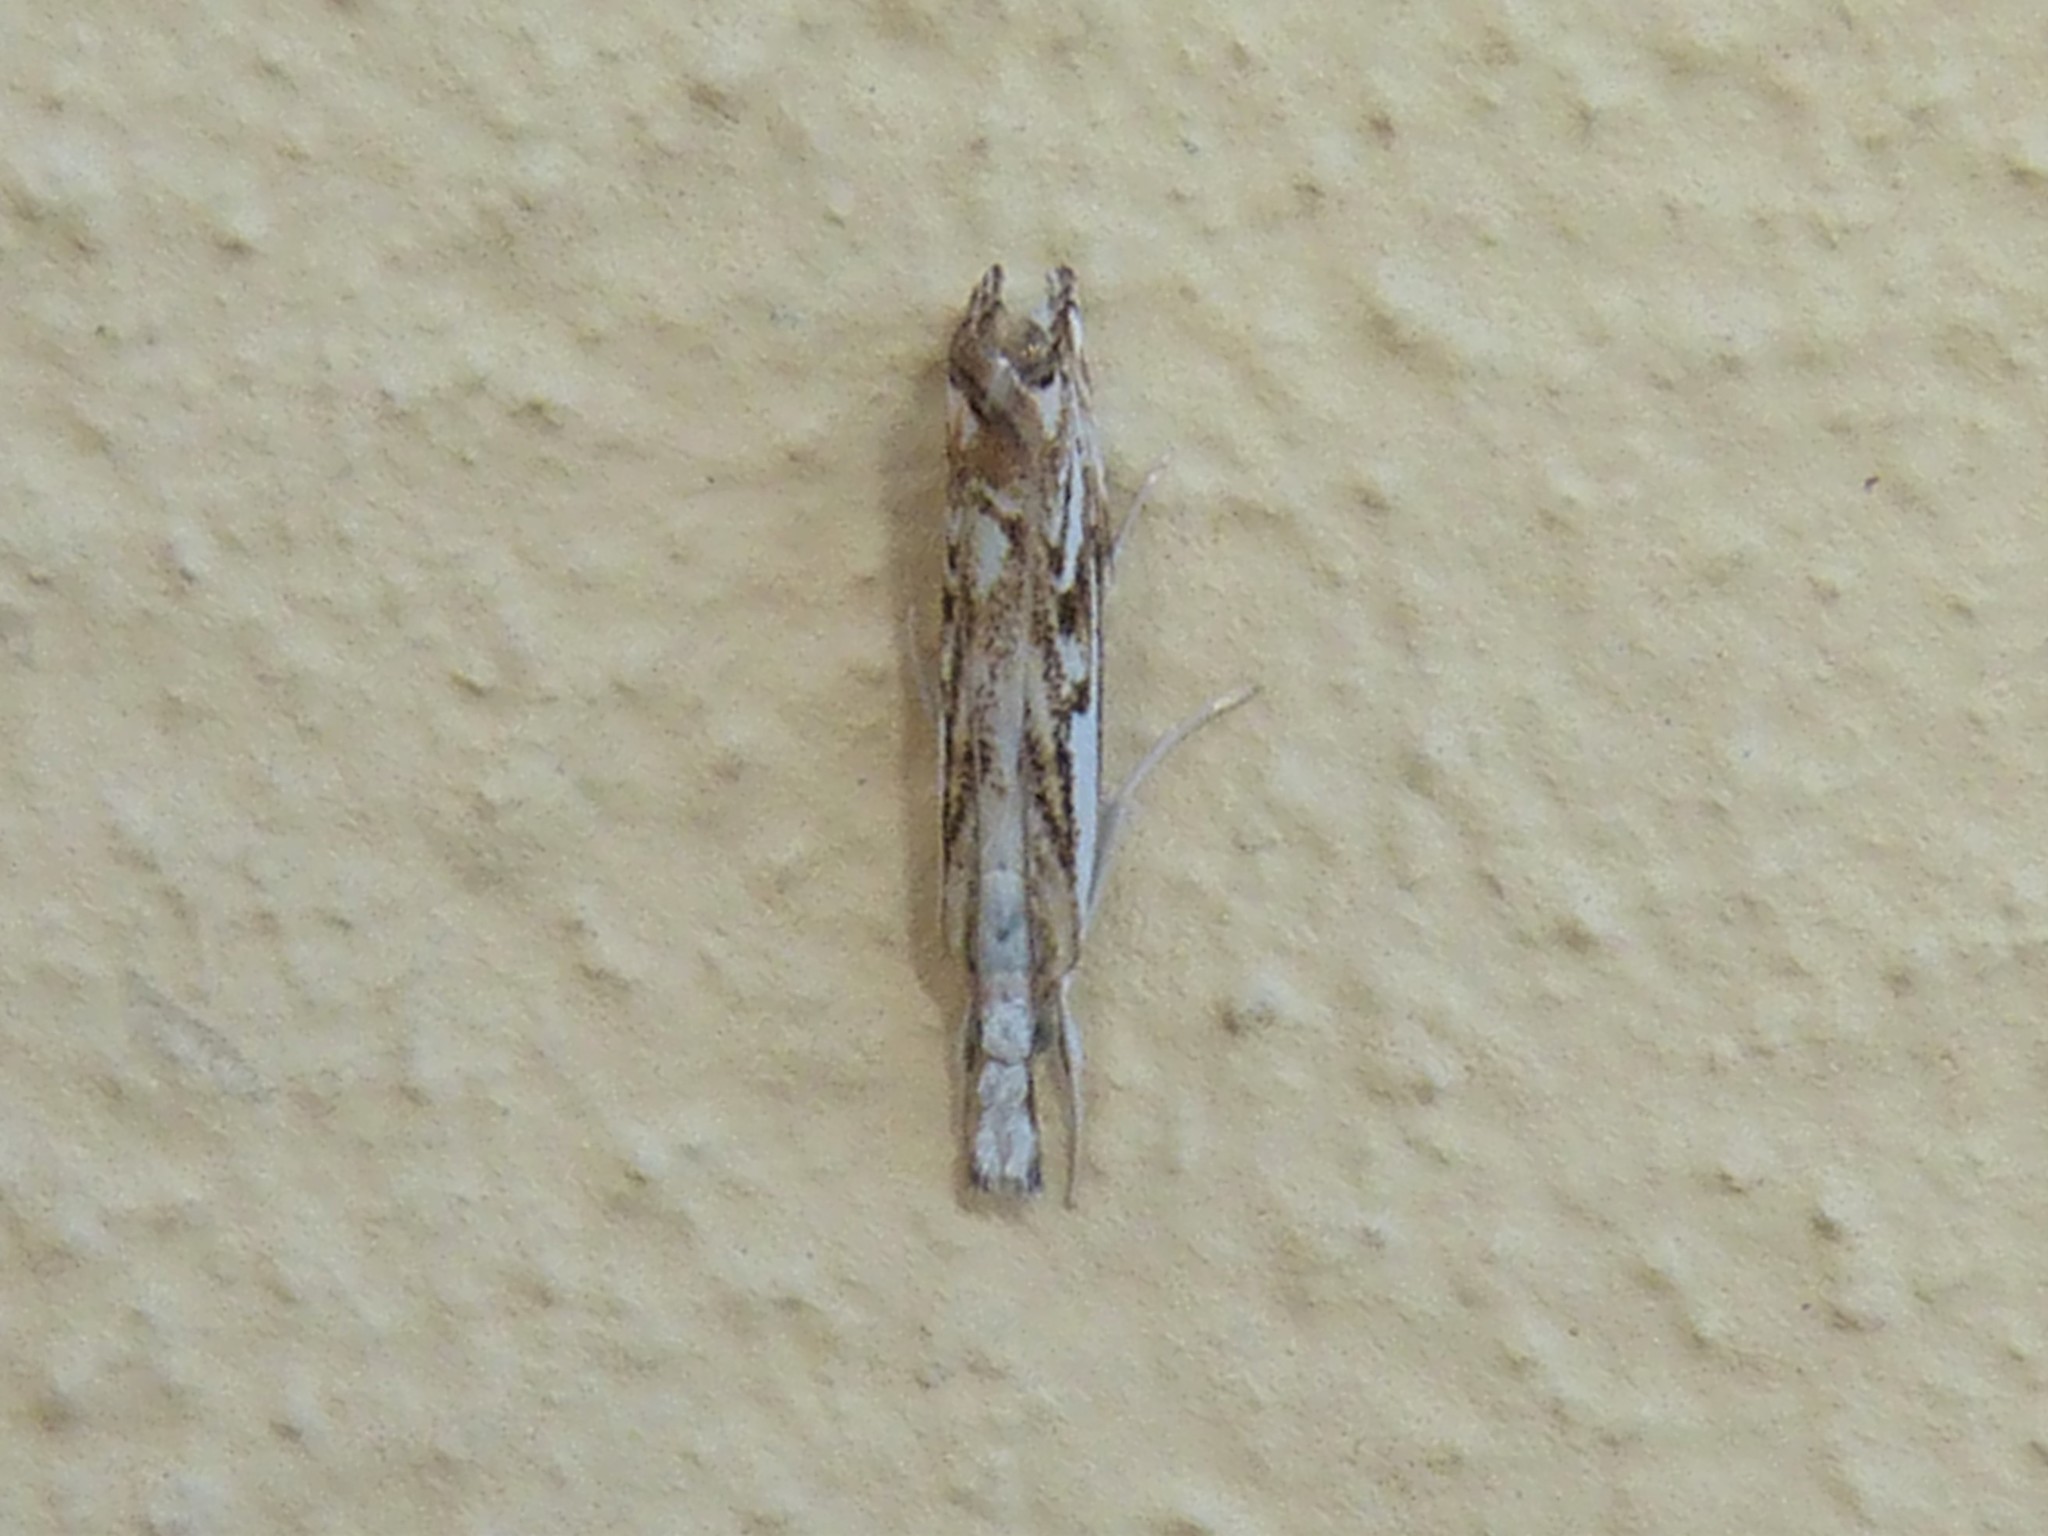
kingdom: Animalia
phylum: Arthropoda
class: Insecta
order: Lepidoptera
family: Crambidae
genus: Catoptria
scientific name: Catoptria falsella
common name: Chequered grass-veneer
